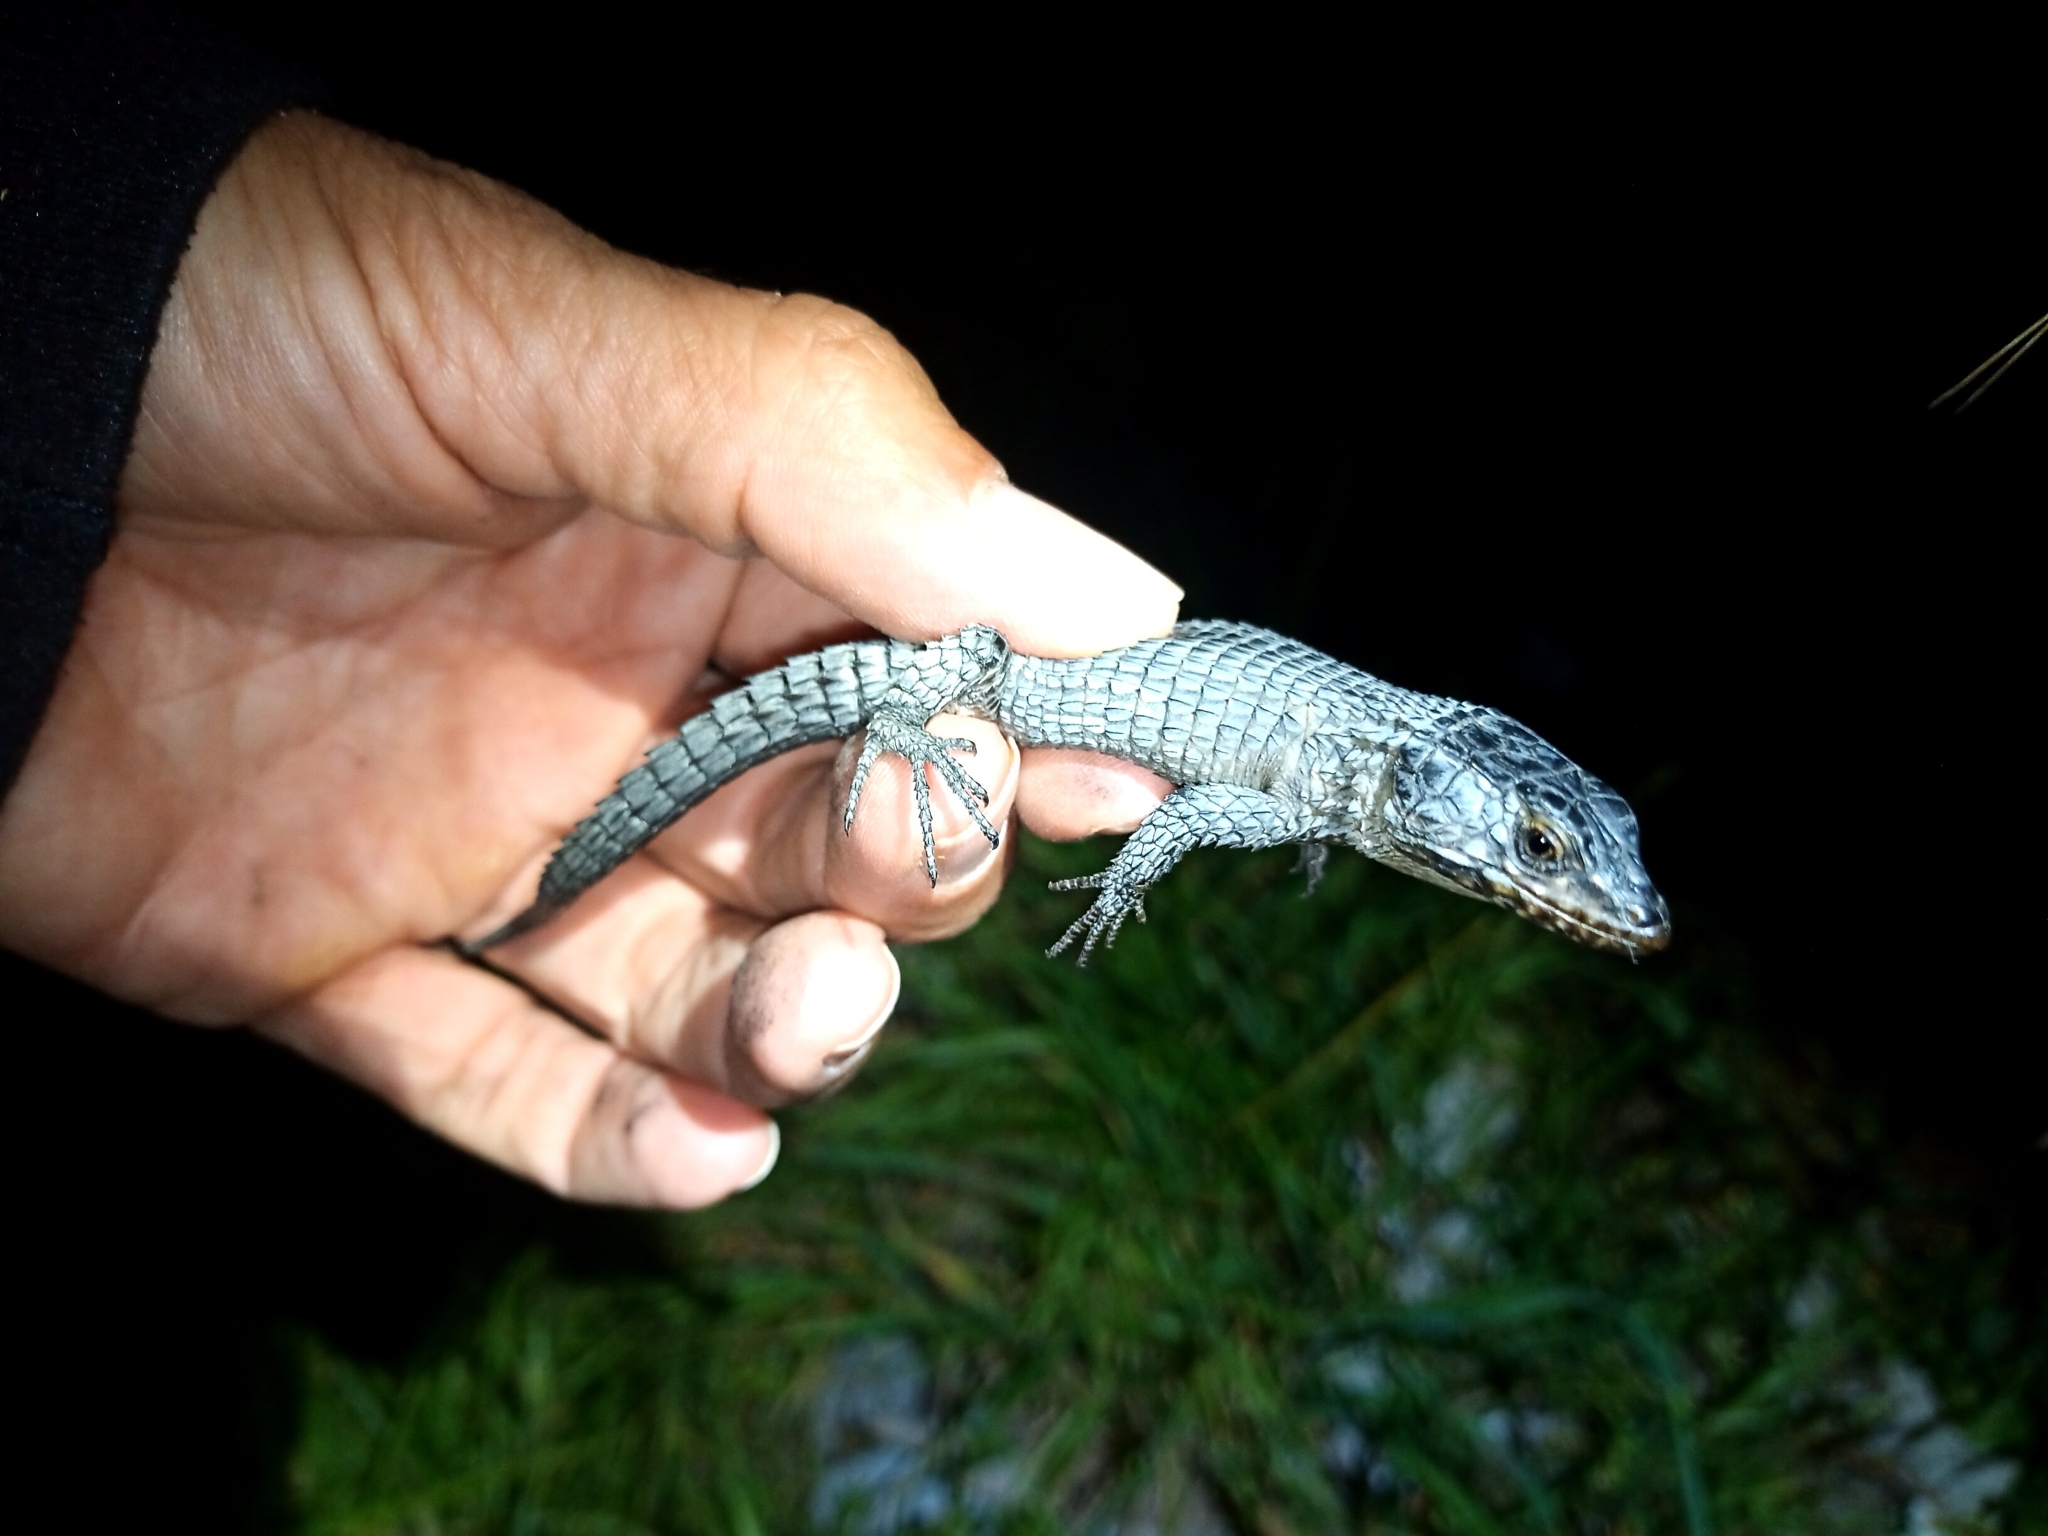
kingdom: Animalia
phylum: Chordata
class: Squamata
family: Cordylidae
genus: Cordylus
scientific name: Cordylus niger
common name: Black girdled lizard
